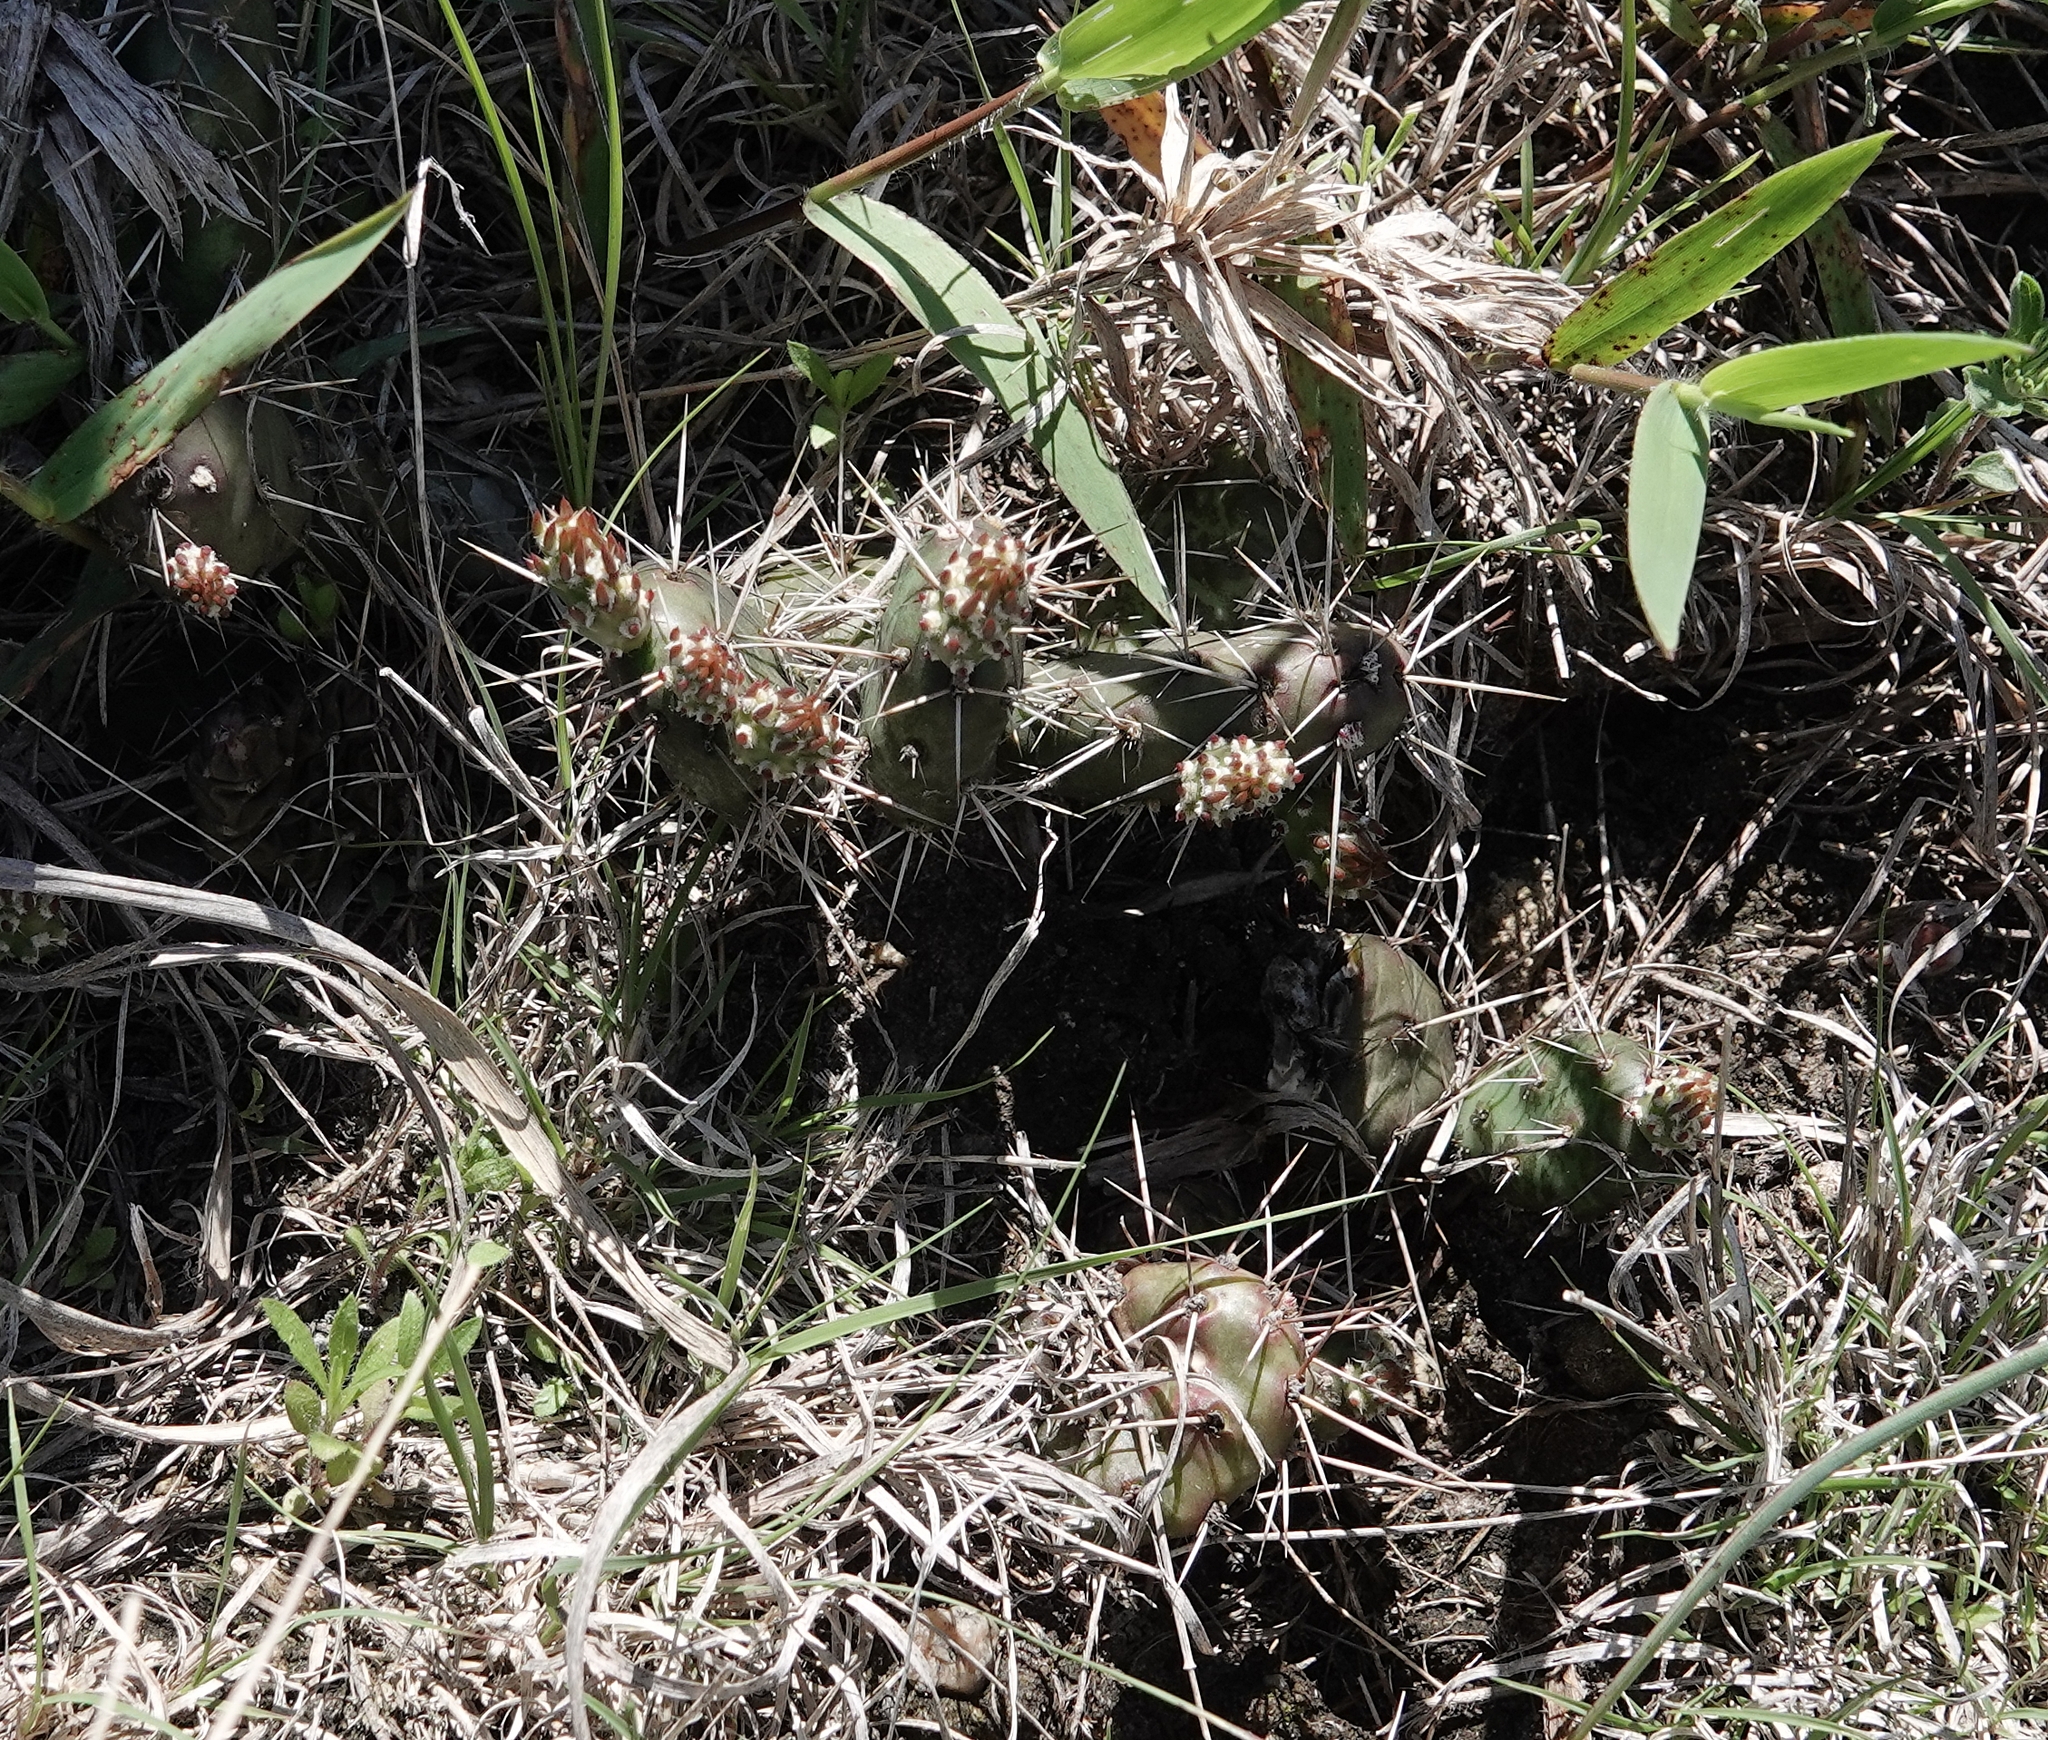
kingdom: Plantae
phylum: Tracheophyta
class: Magnoliopsida
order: Caryophyllales
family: Cactaceae
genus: Opuntia
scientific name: Opuntia fragilis
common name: Brittle cactus
